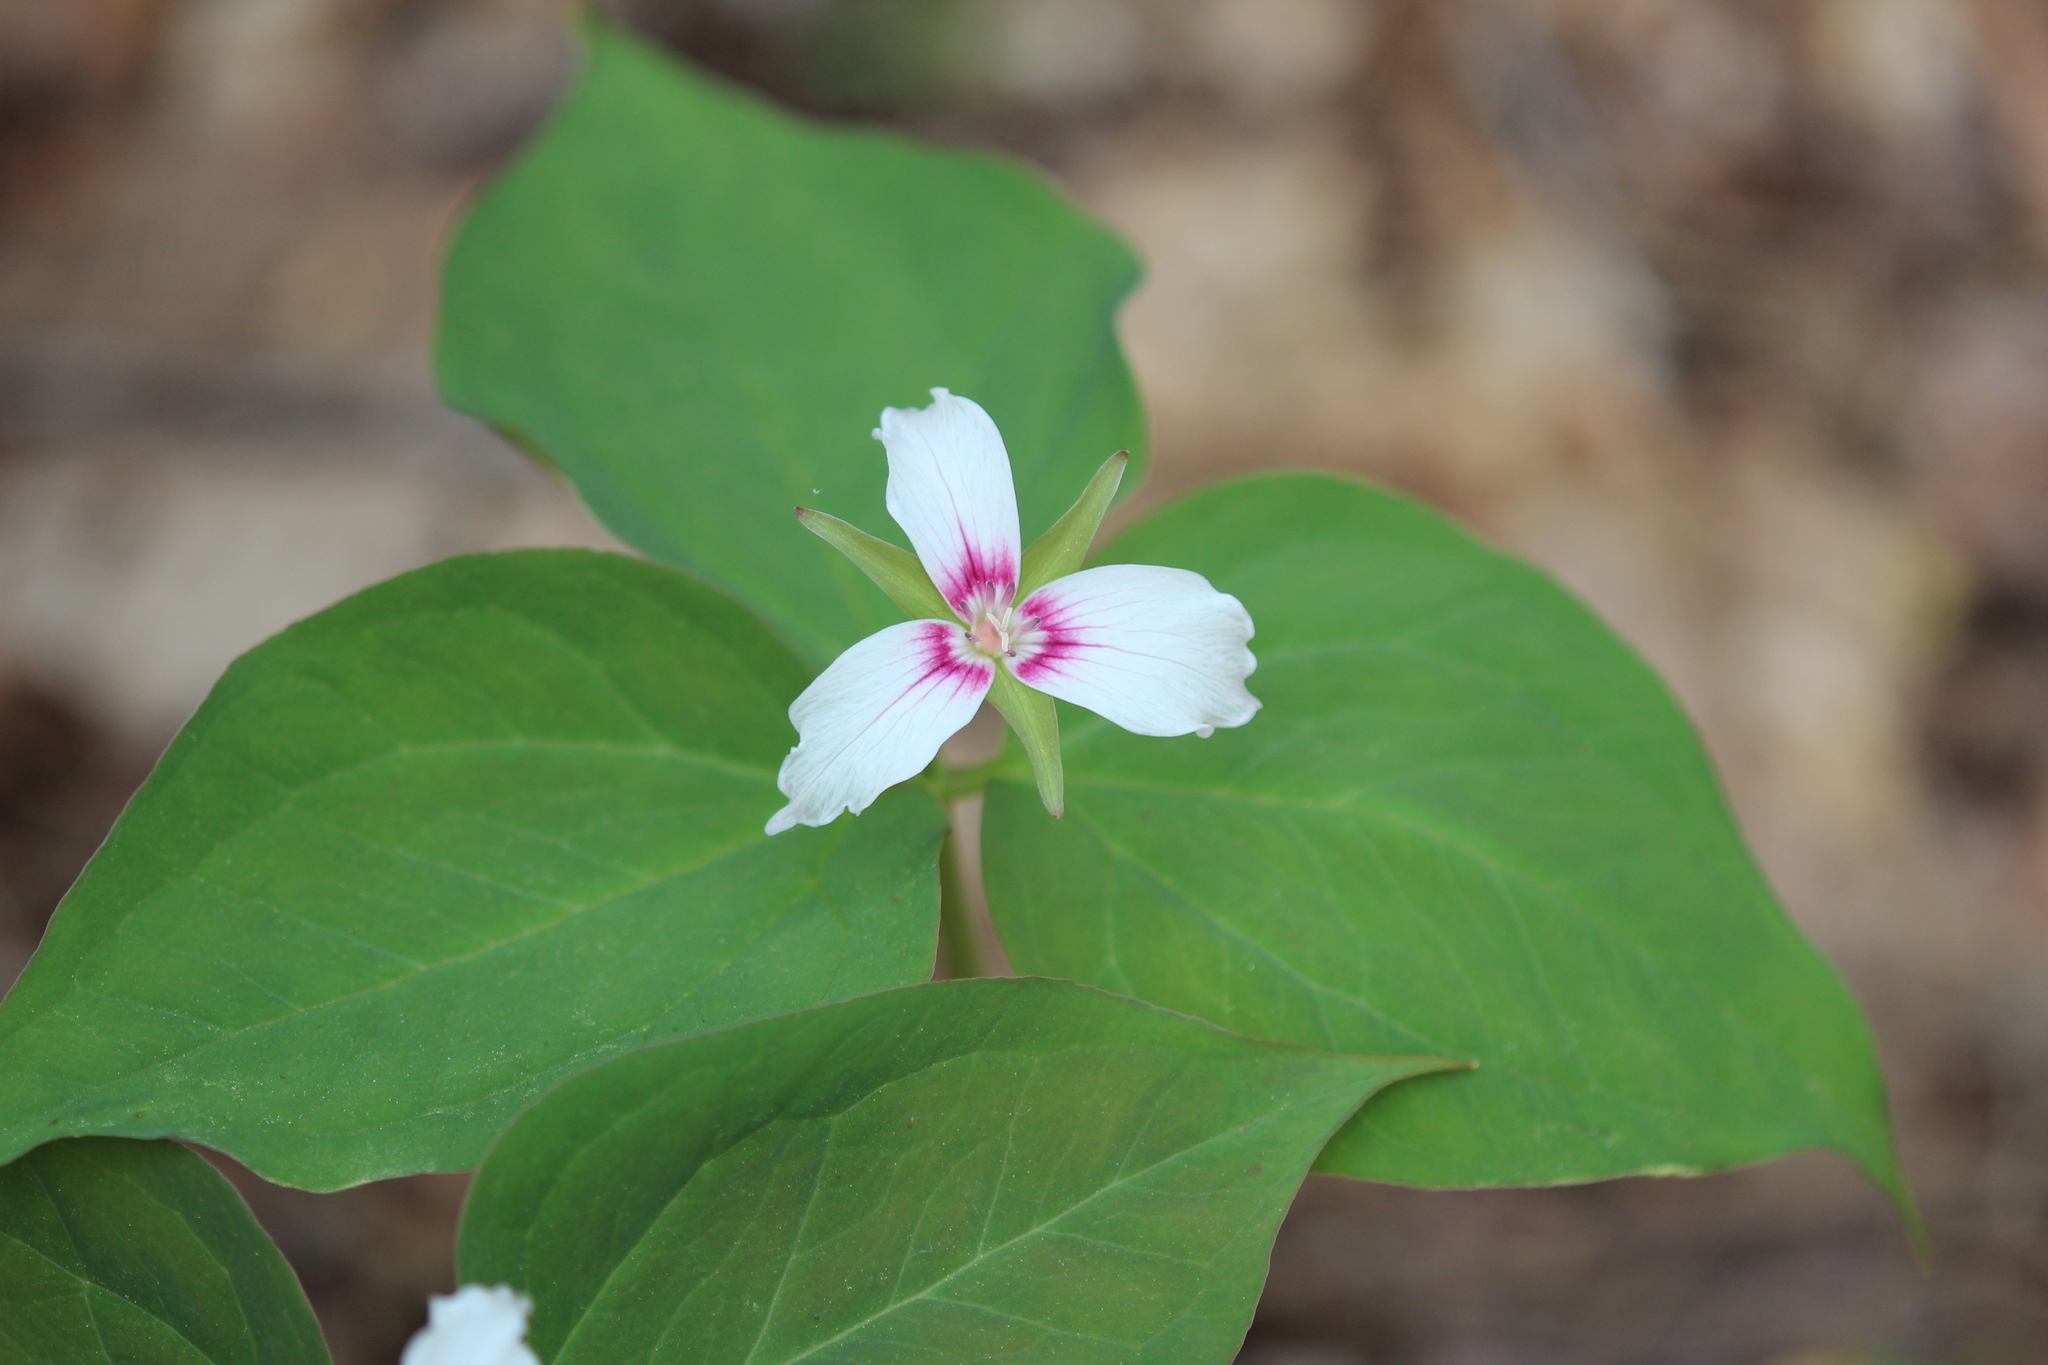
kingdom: Plantae
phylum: Tracheophyta
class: Liliopsida
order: Liliales
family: Melanthiaceae
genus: Trillium
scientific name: Trillium undulatum
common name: Paint trillium
